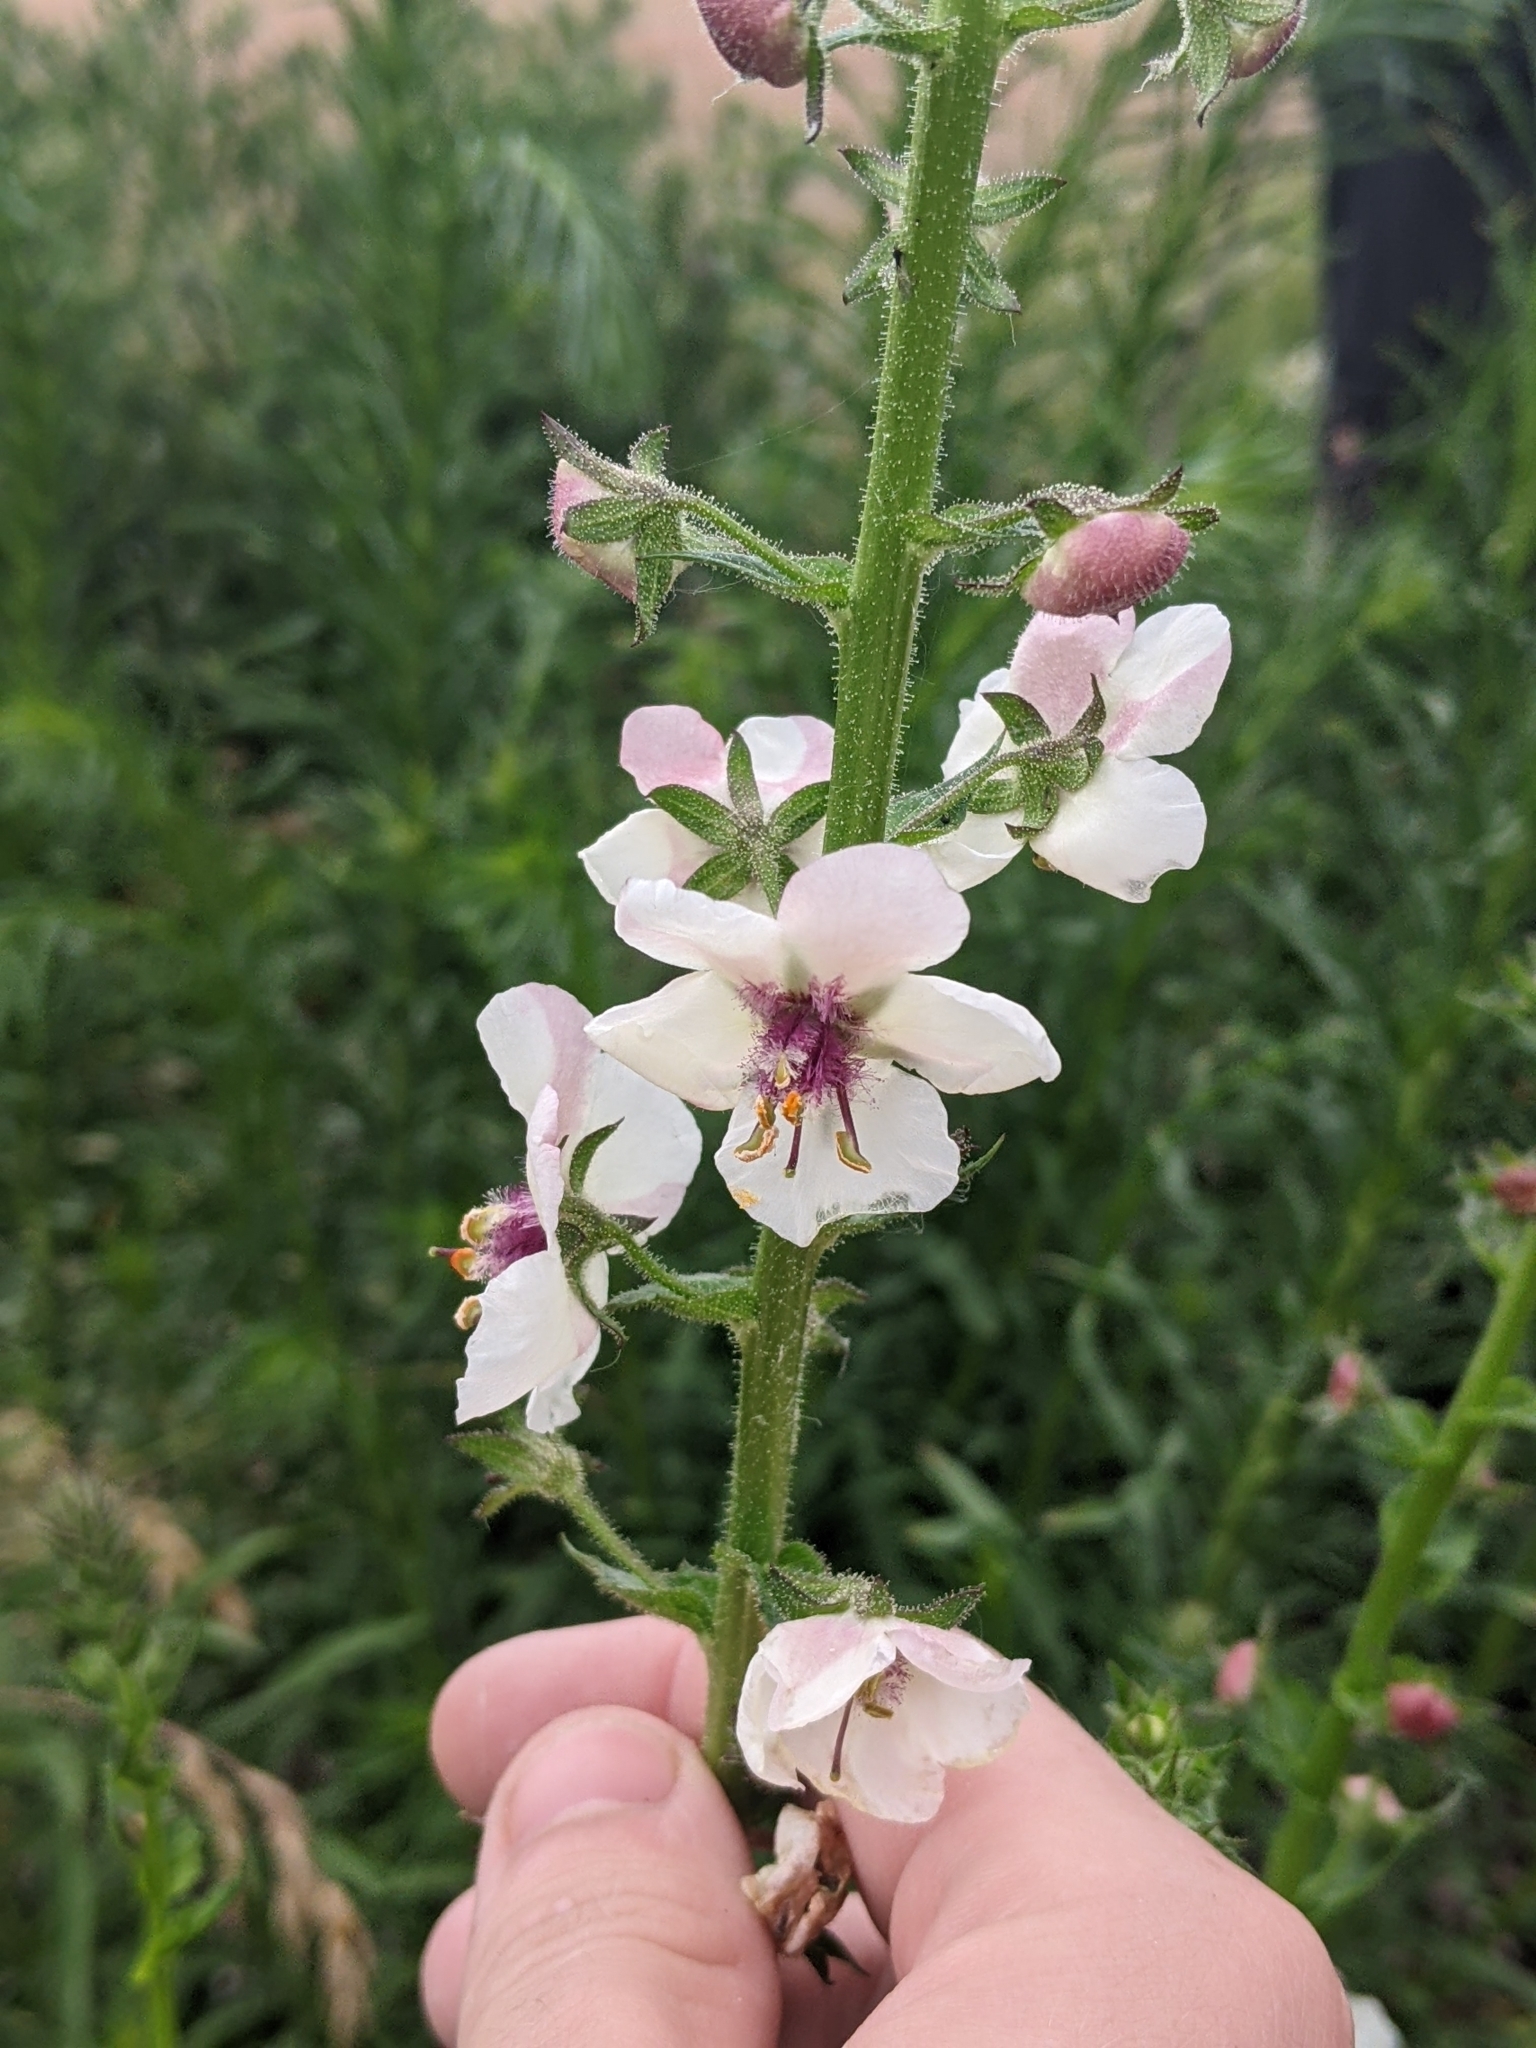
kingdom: Plantae
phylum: Tracheophyta
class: Magnoliopsida
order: Lamiales
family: Scrophulariaceae
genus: Verbascum
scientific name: Verbascum blattaria
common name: Moth mullein
